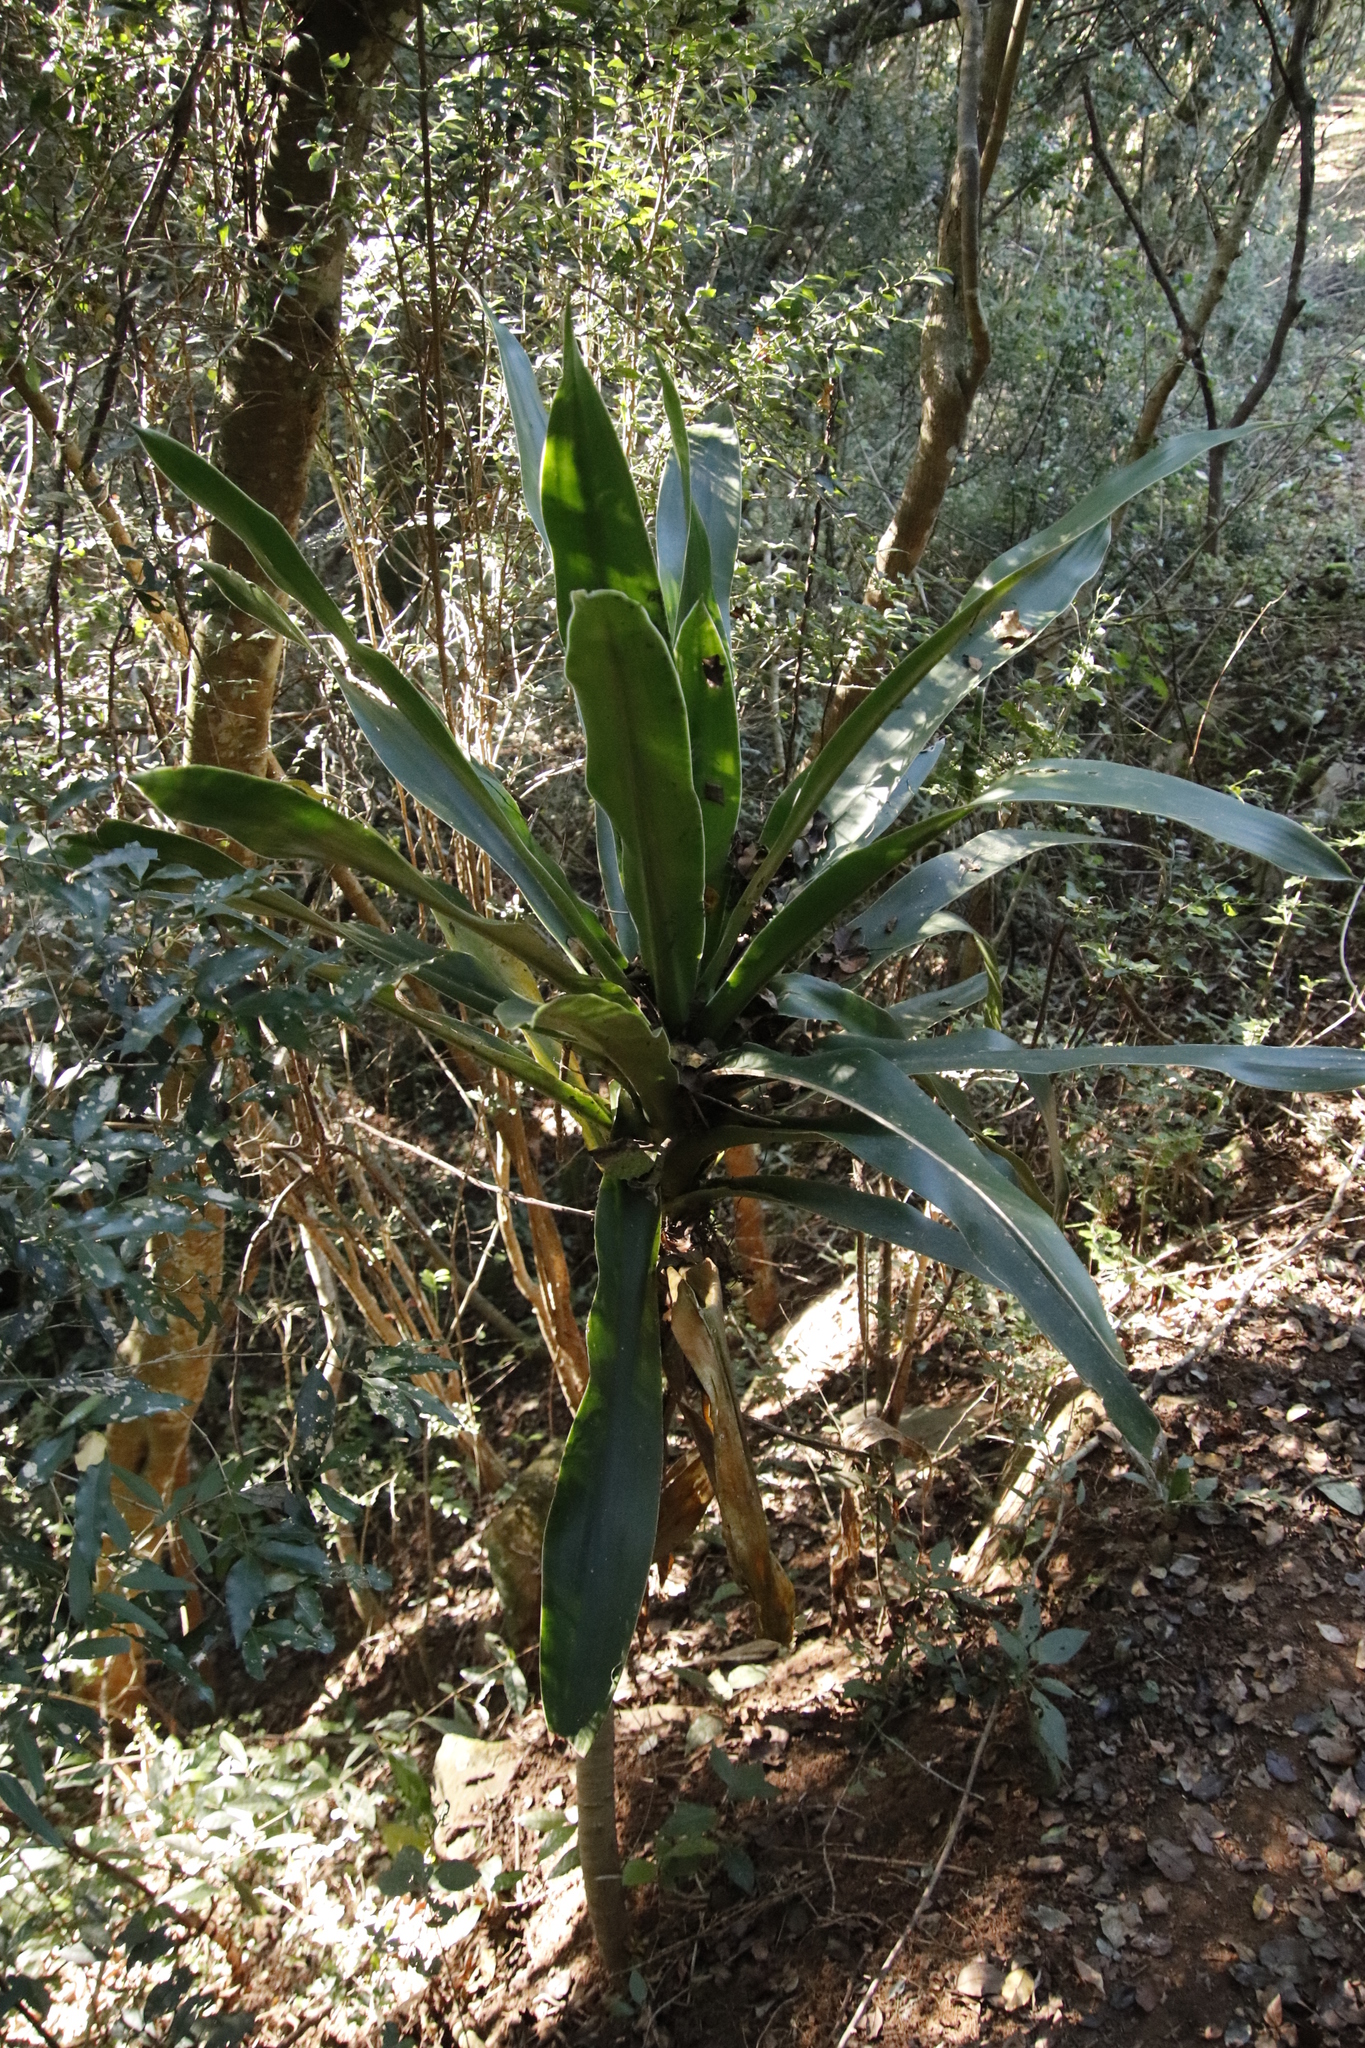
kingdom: Plantae
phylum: Tracheophyta
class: Liliopsida
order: Asparagales
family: Asparagaceae
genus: Dracaena
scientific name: Dracaena aletriformis
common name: Large-leaved dragon tree
